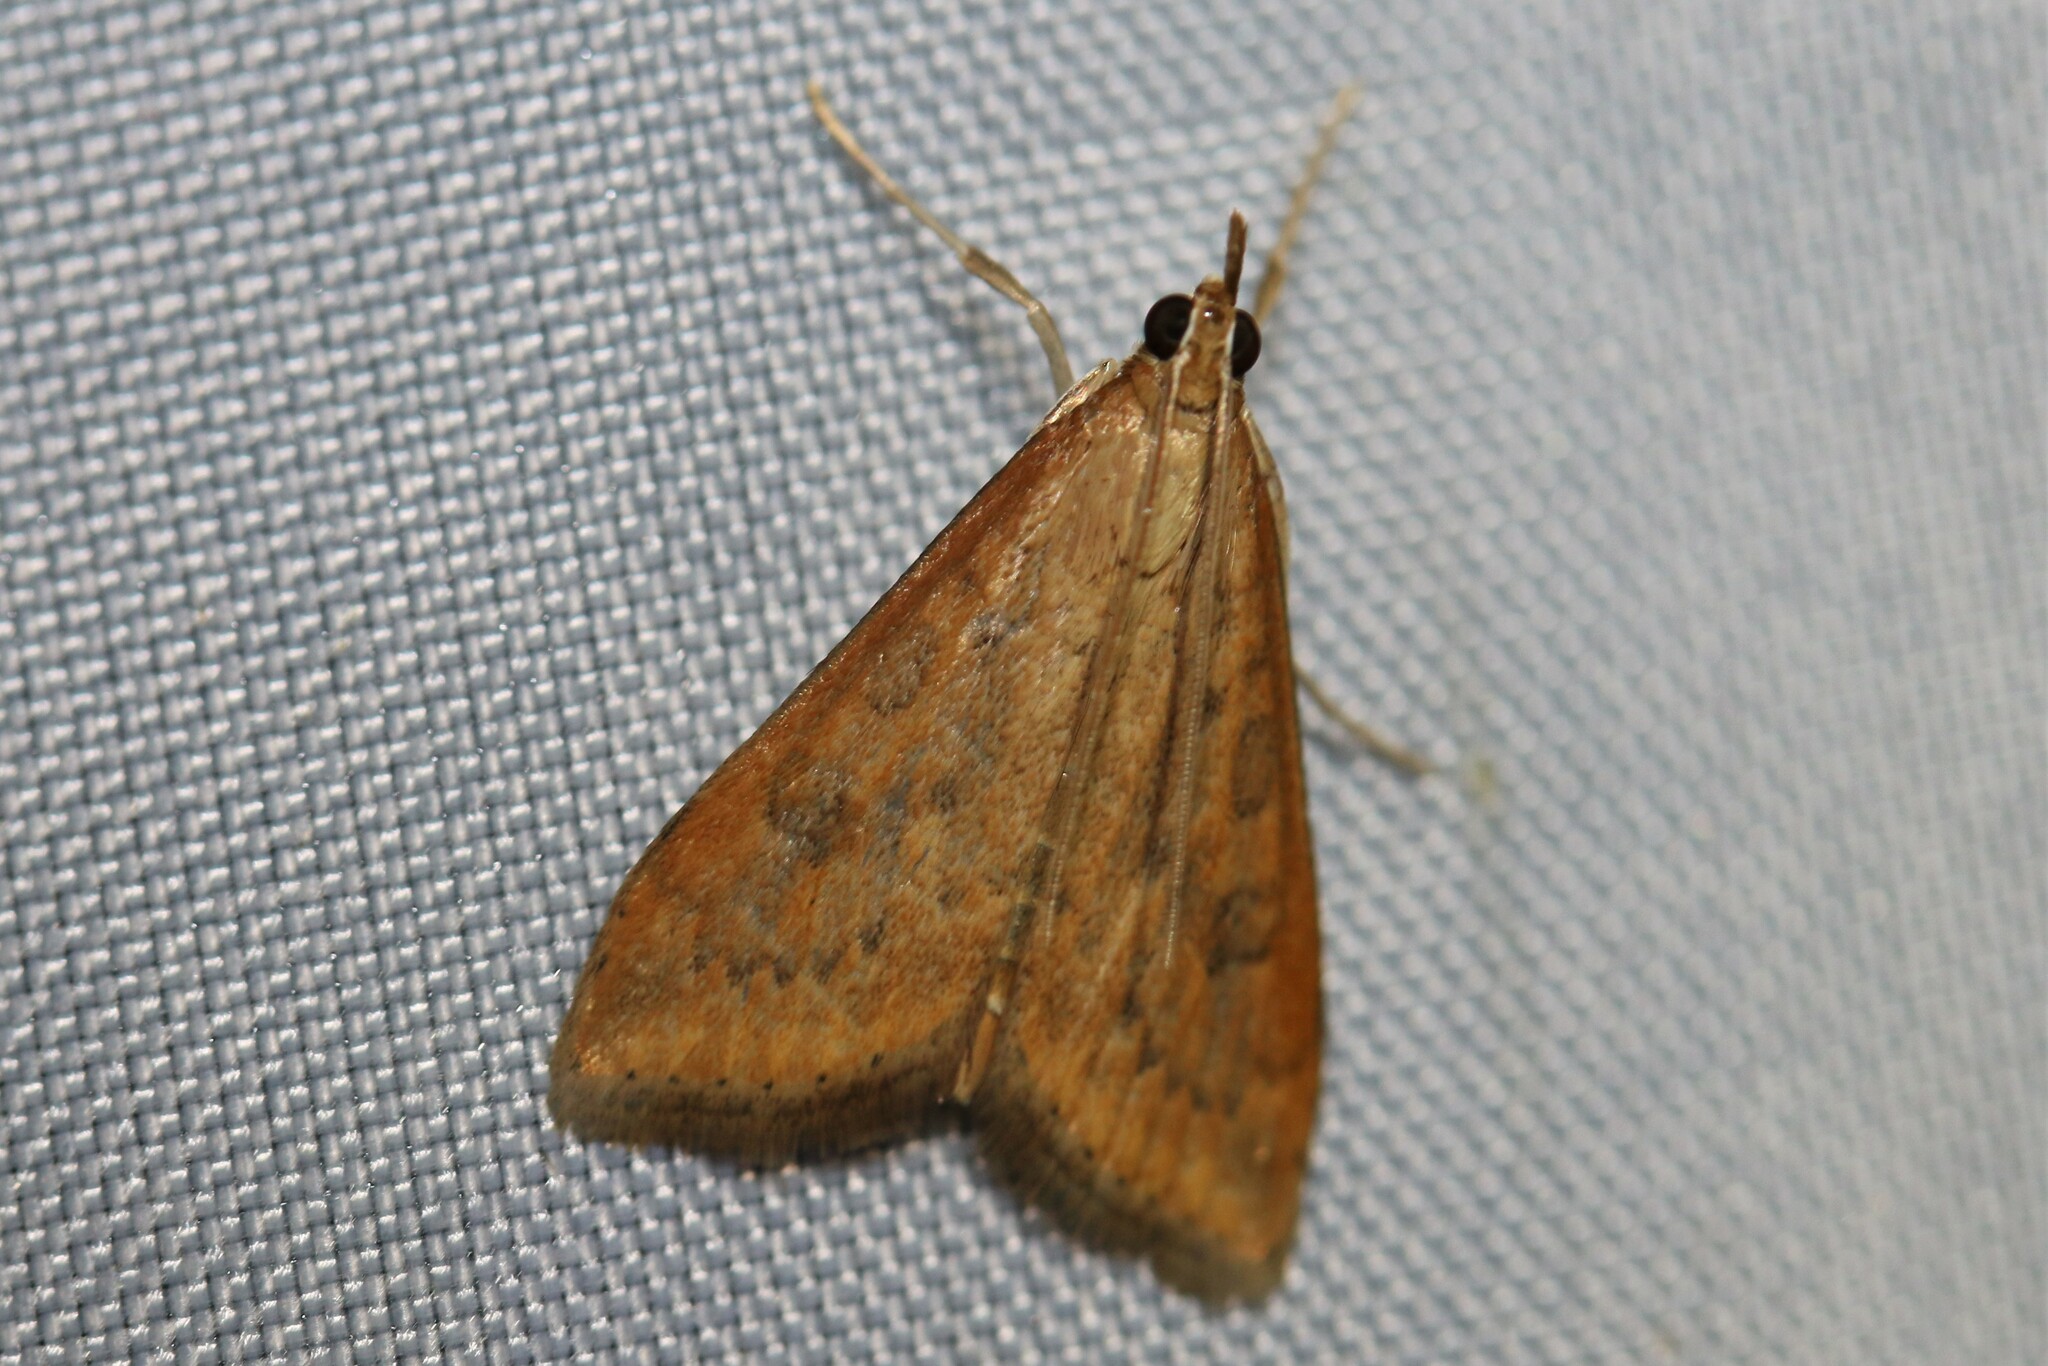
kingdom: Animalia
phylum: Arthropoda
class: Insecta
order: Lepidoptera
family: Crambidae
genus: Udea
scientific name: Udea ferrugalis
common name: Rusty dot
